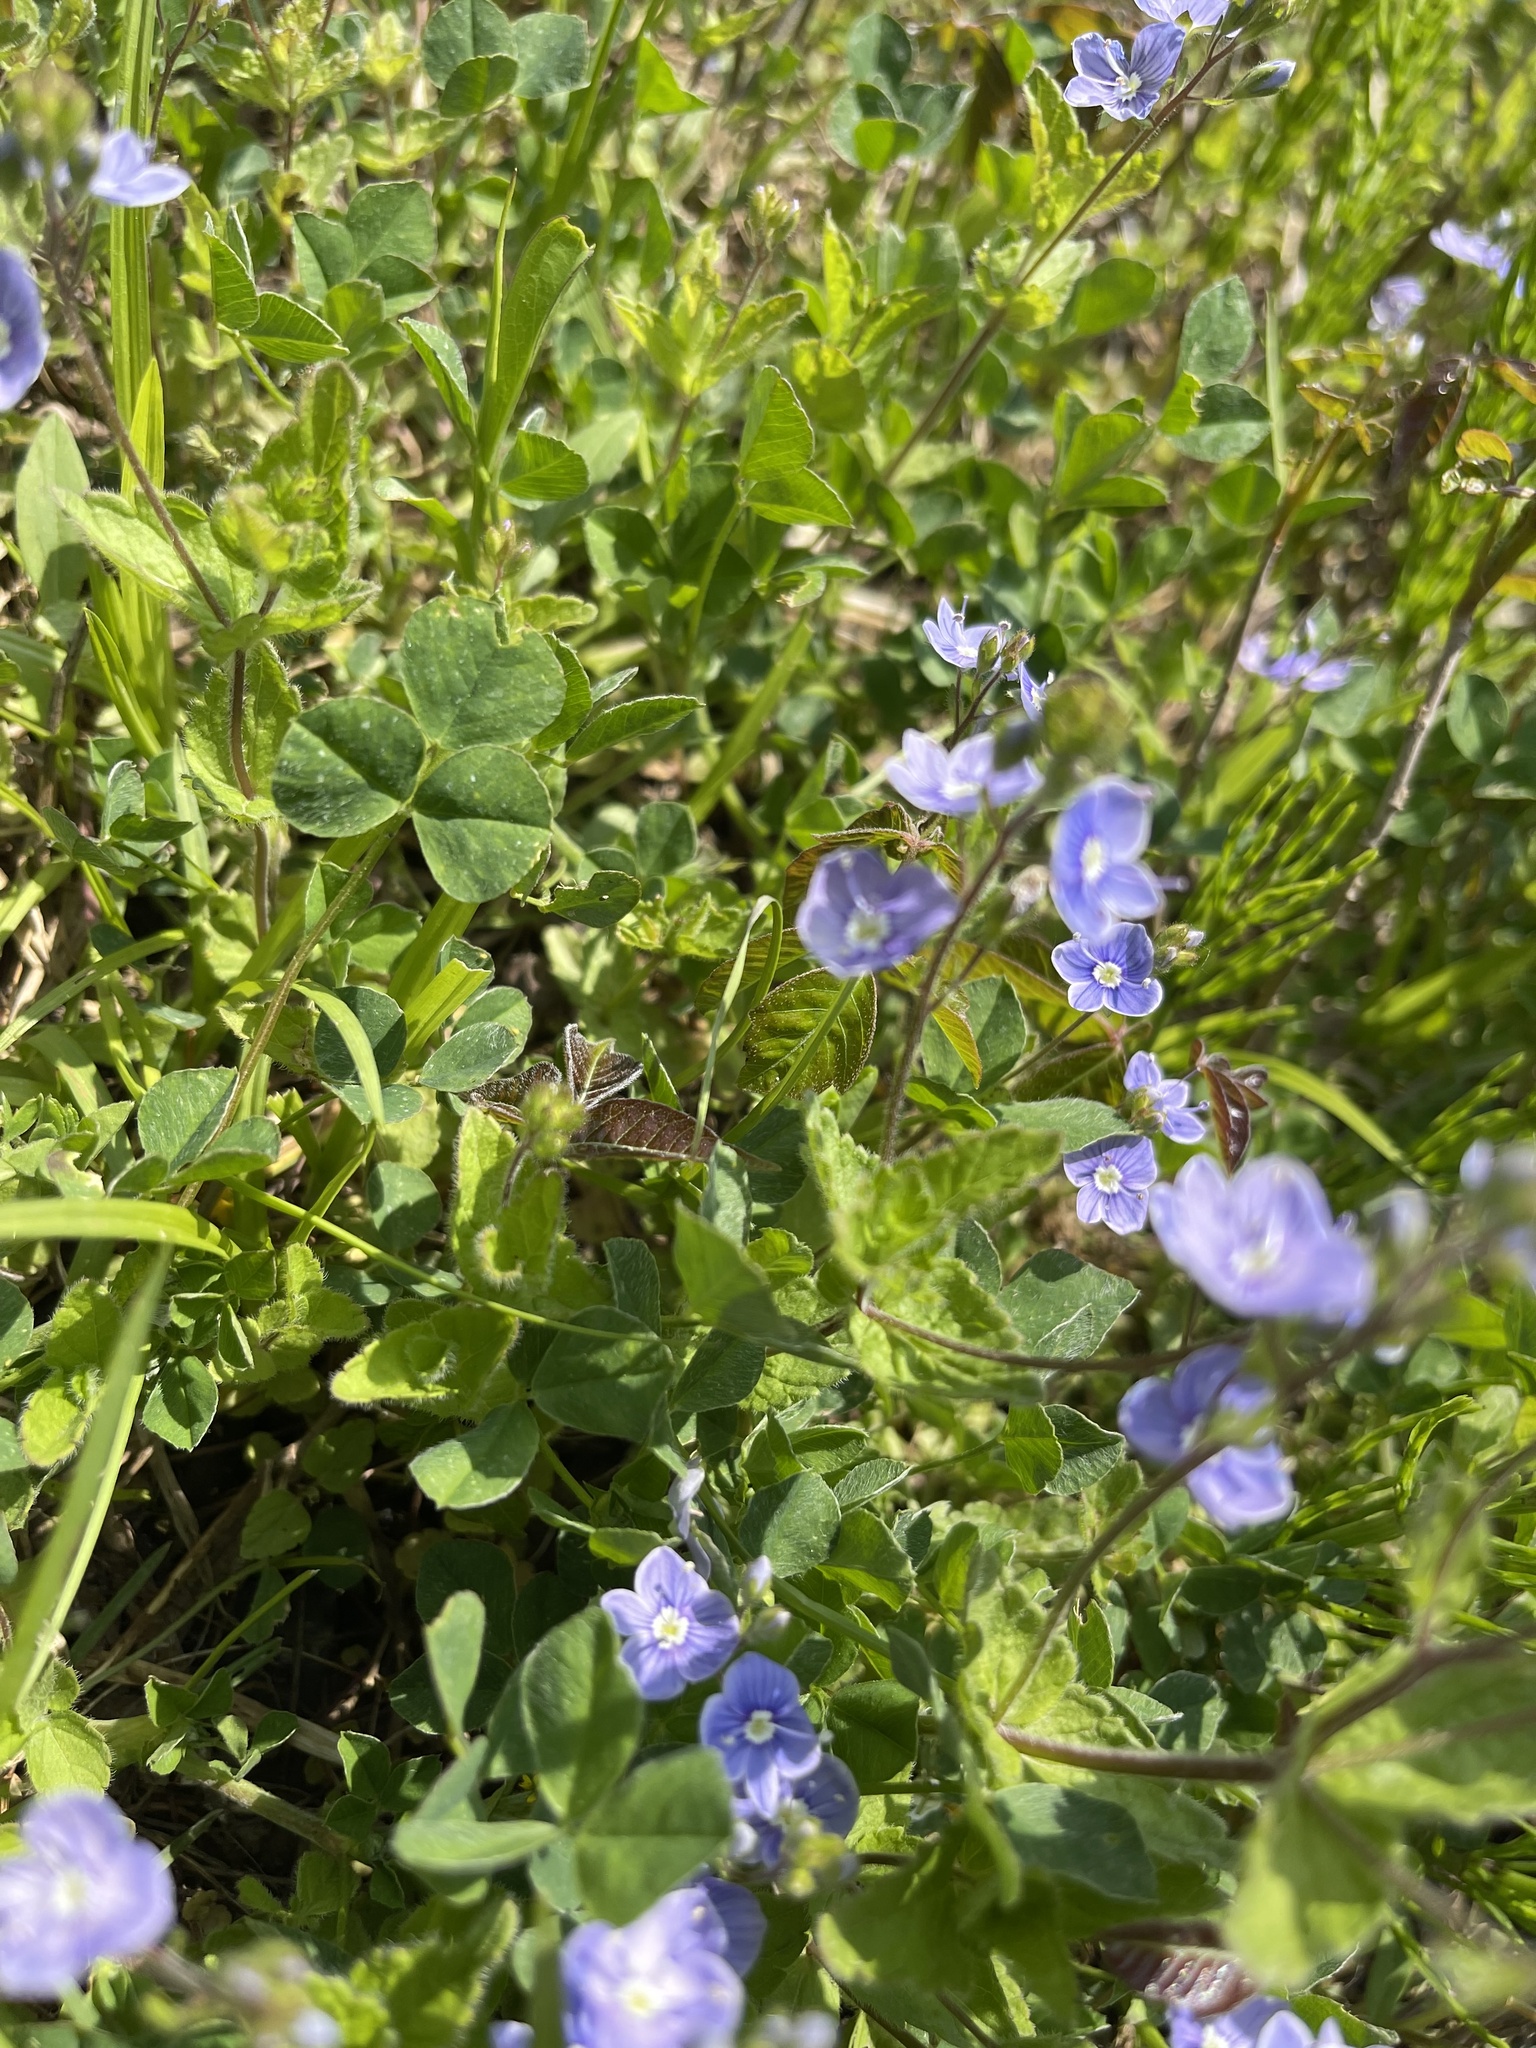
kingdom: Plantae
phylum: Tracheophyta
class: Magnoliopsida
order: Lamiales
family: Plantaginaceae
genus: Veronica
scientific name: Veronica chamaedrys
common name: Germander speedwell
